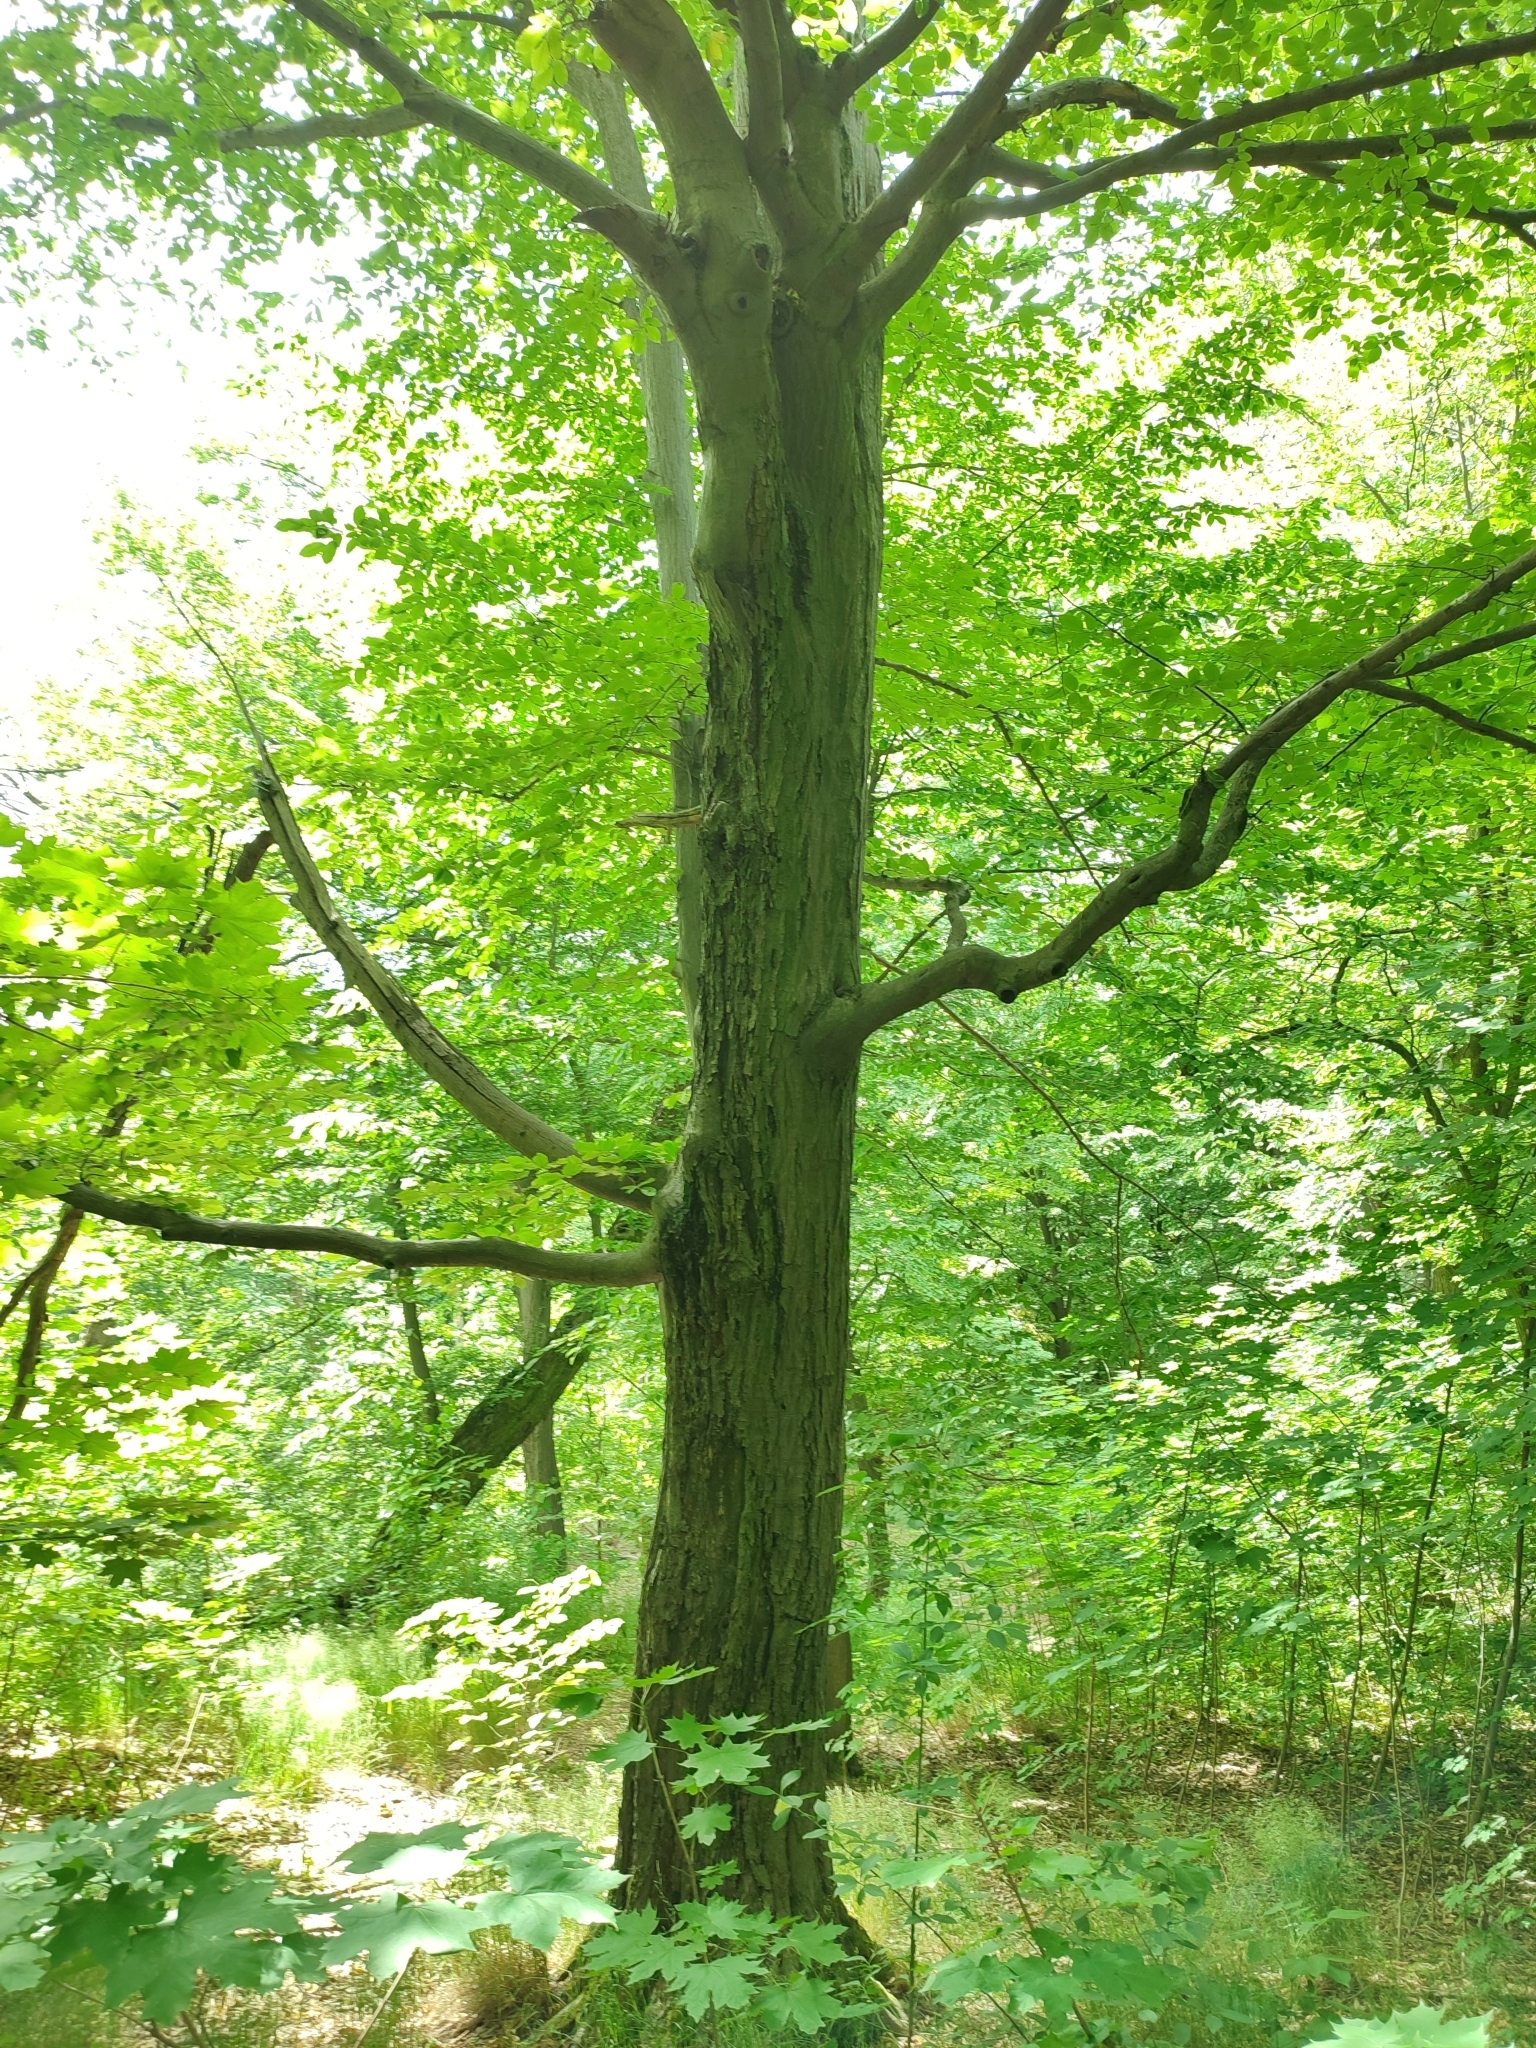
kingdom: Plantae
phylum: Tracheophyta
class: Magnoliopsida
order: Fagales
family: Betulaceae
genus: Carpinus
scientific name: Carpinus betulus
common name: Hornbeam
